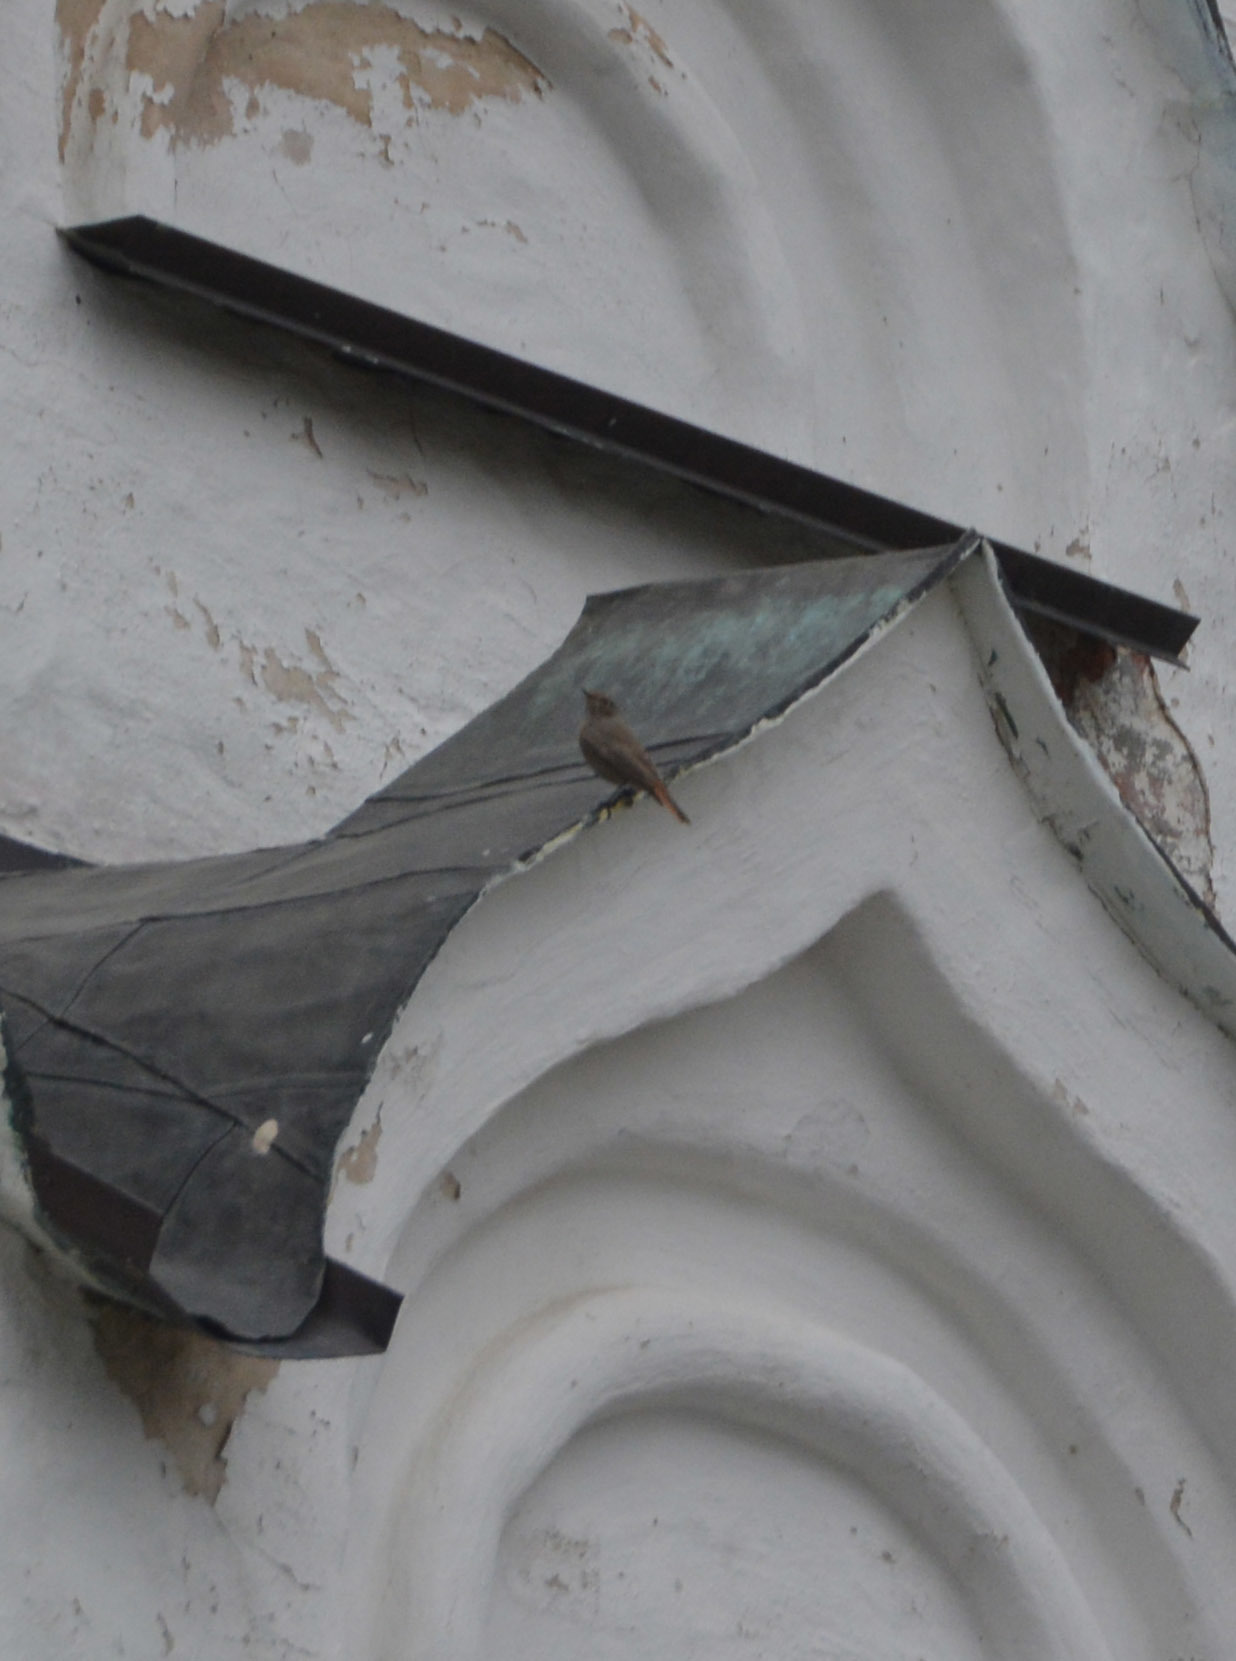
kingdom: Animalia
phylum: Chordata
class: Aves
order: Passeriformes
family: Muscicapidae
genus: Phoenicurus
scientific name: Phoenicurus ochruros
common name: Black redstart
